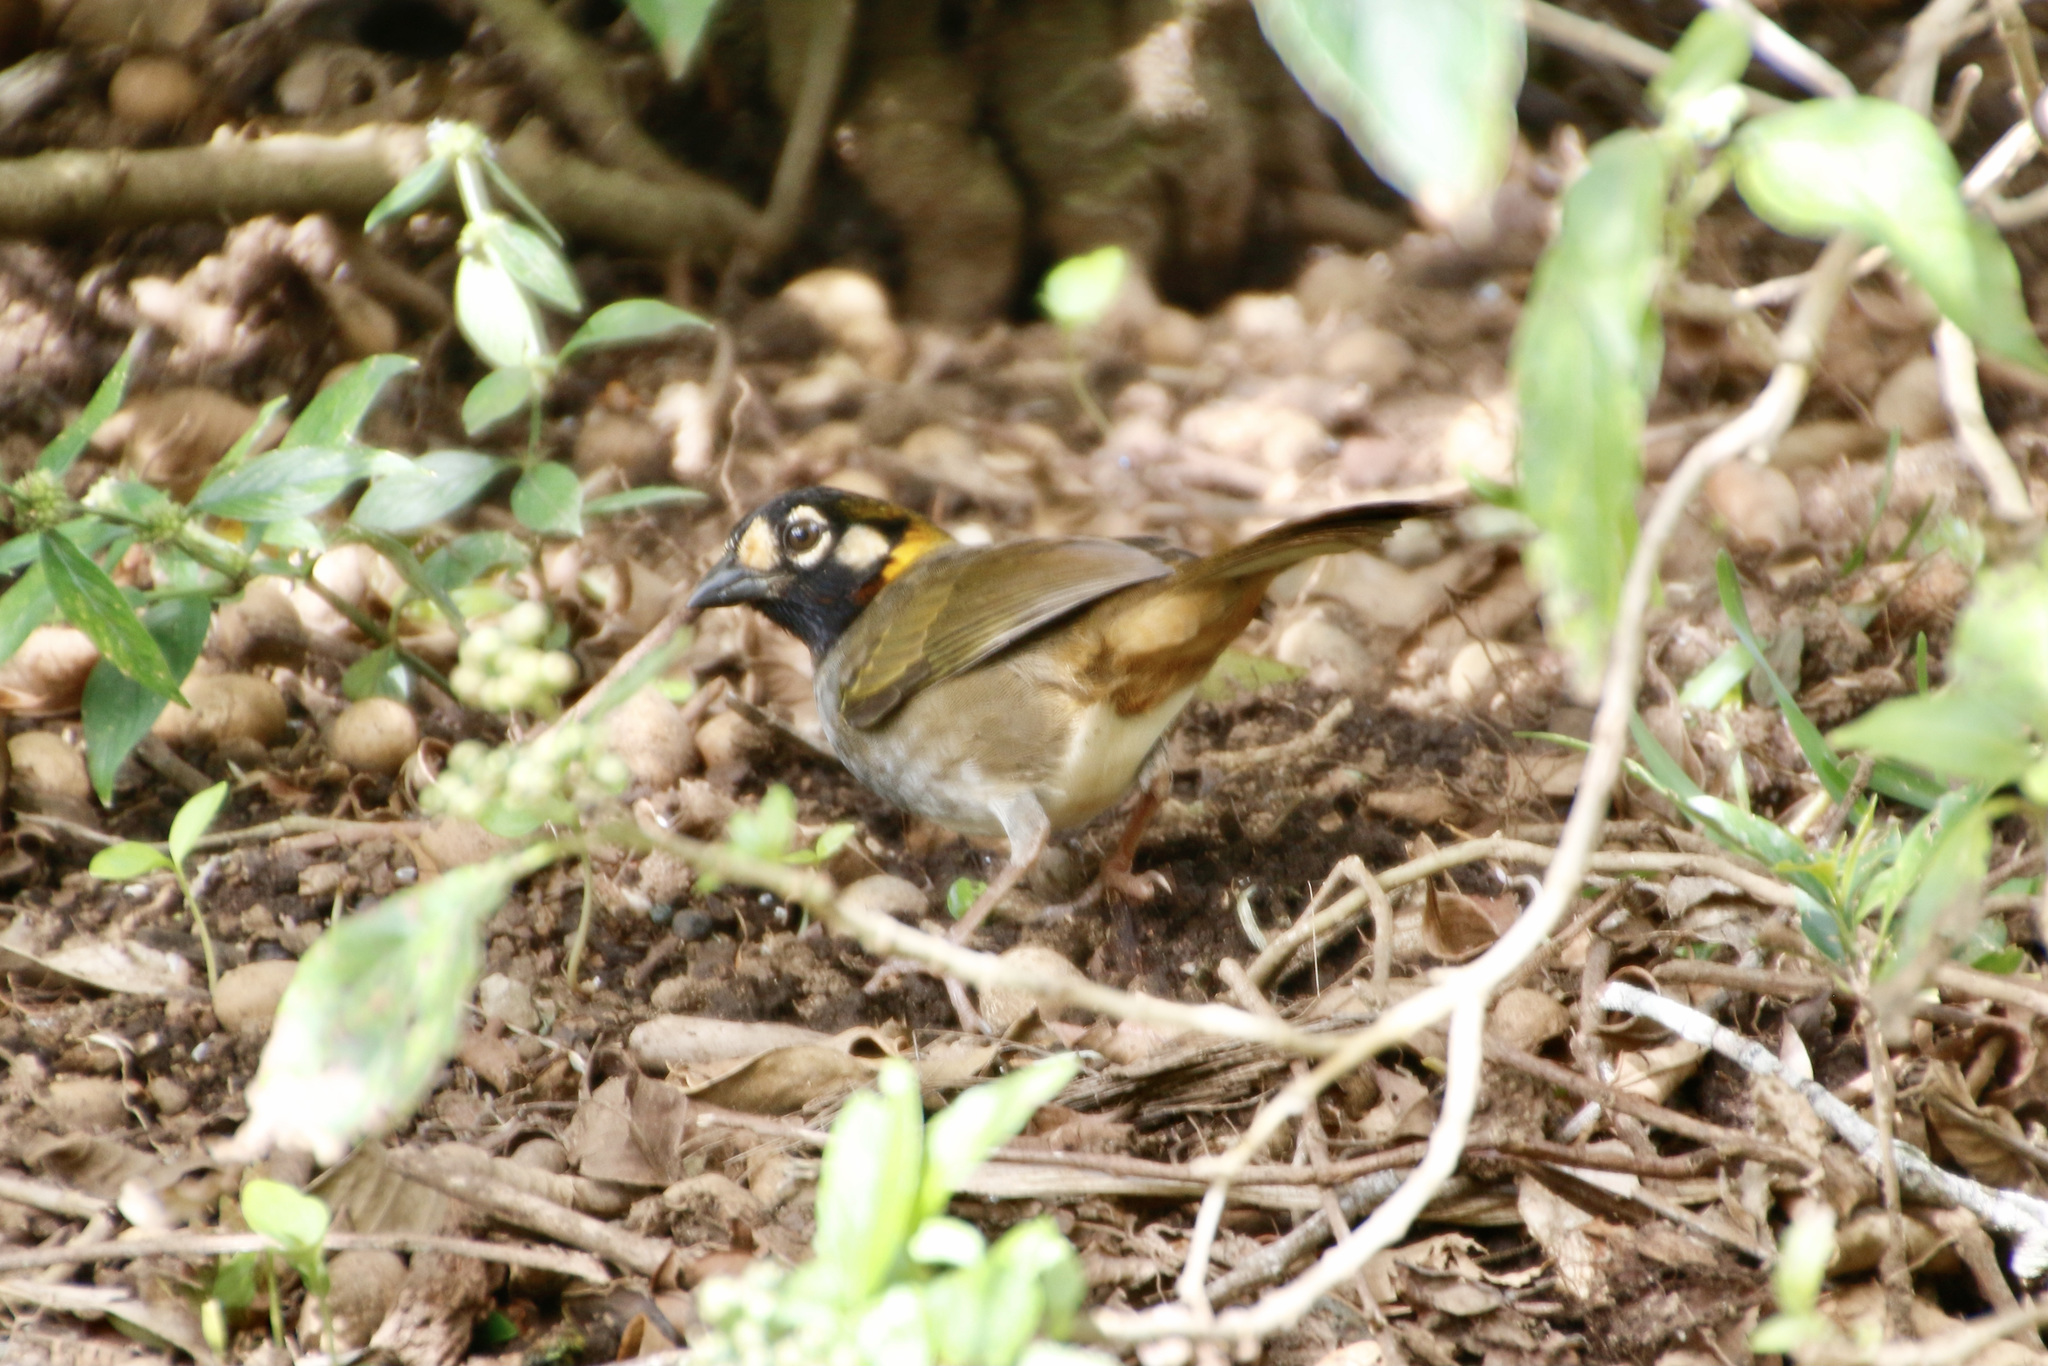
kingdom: Animalia
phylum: Chordata
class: Aves
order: Passeriformes
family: Passerellidae
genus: Melozone
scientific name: Melozone leucotis
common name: White-eared ground-sparrow
